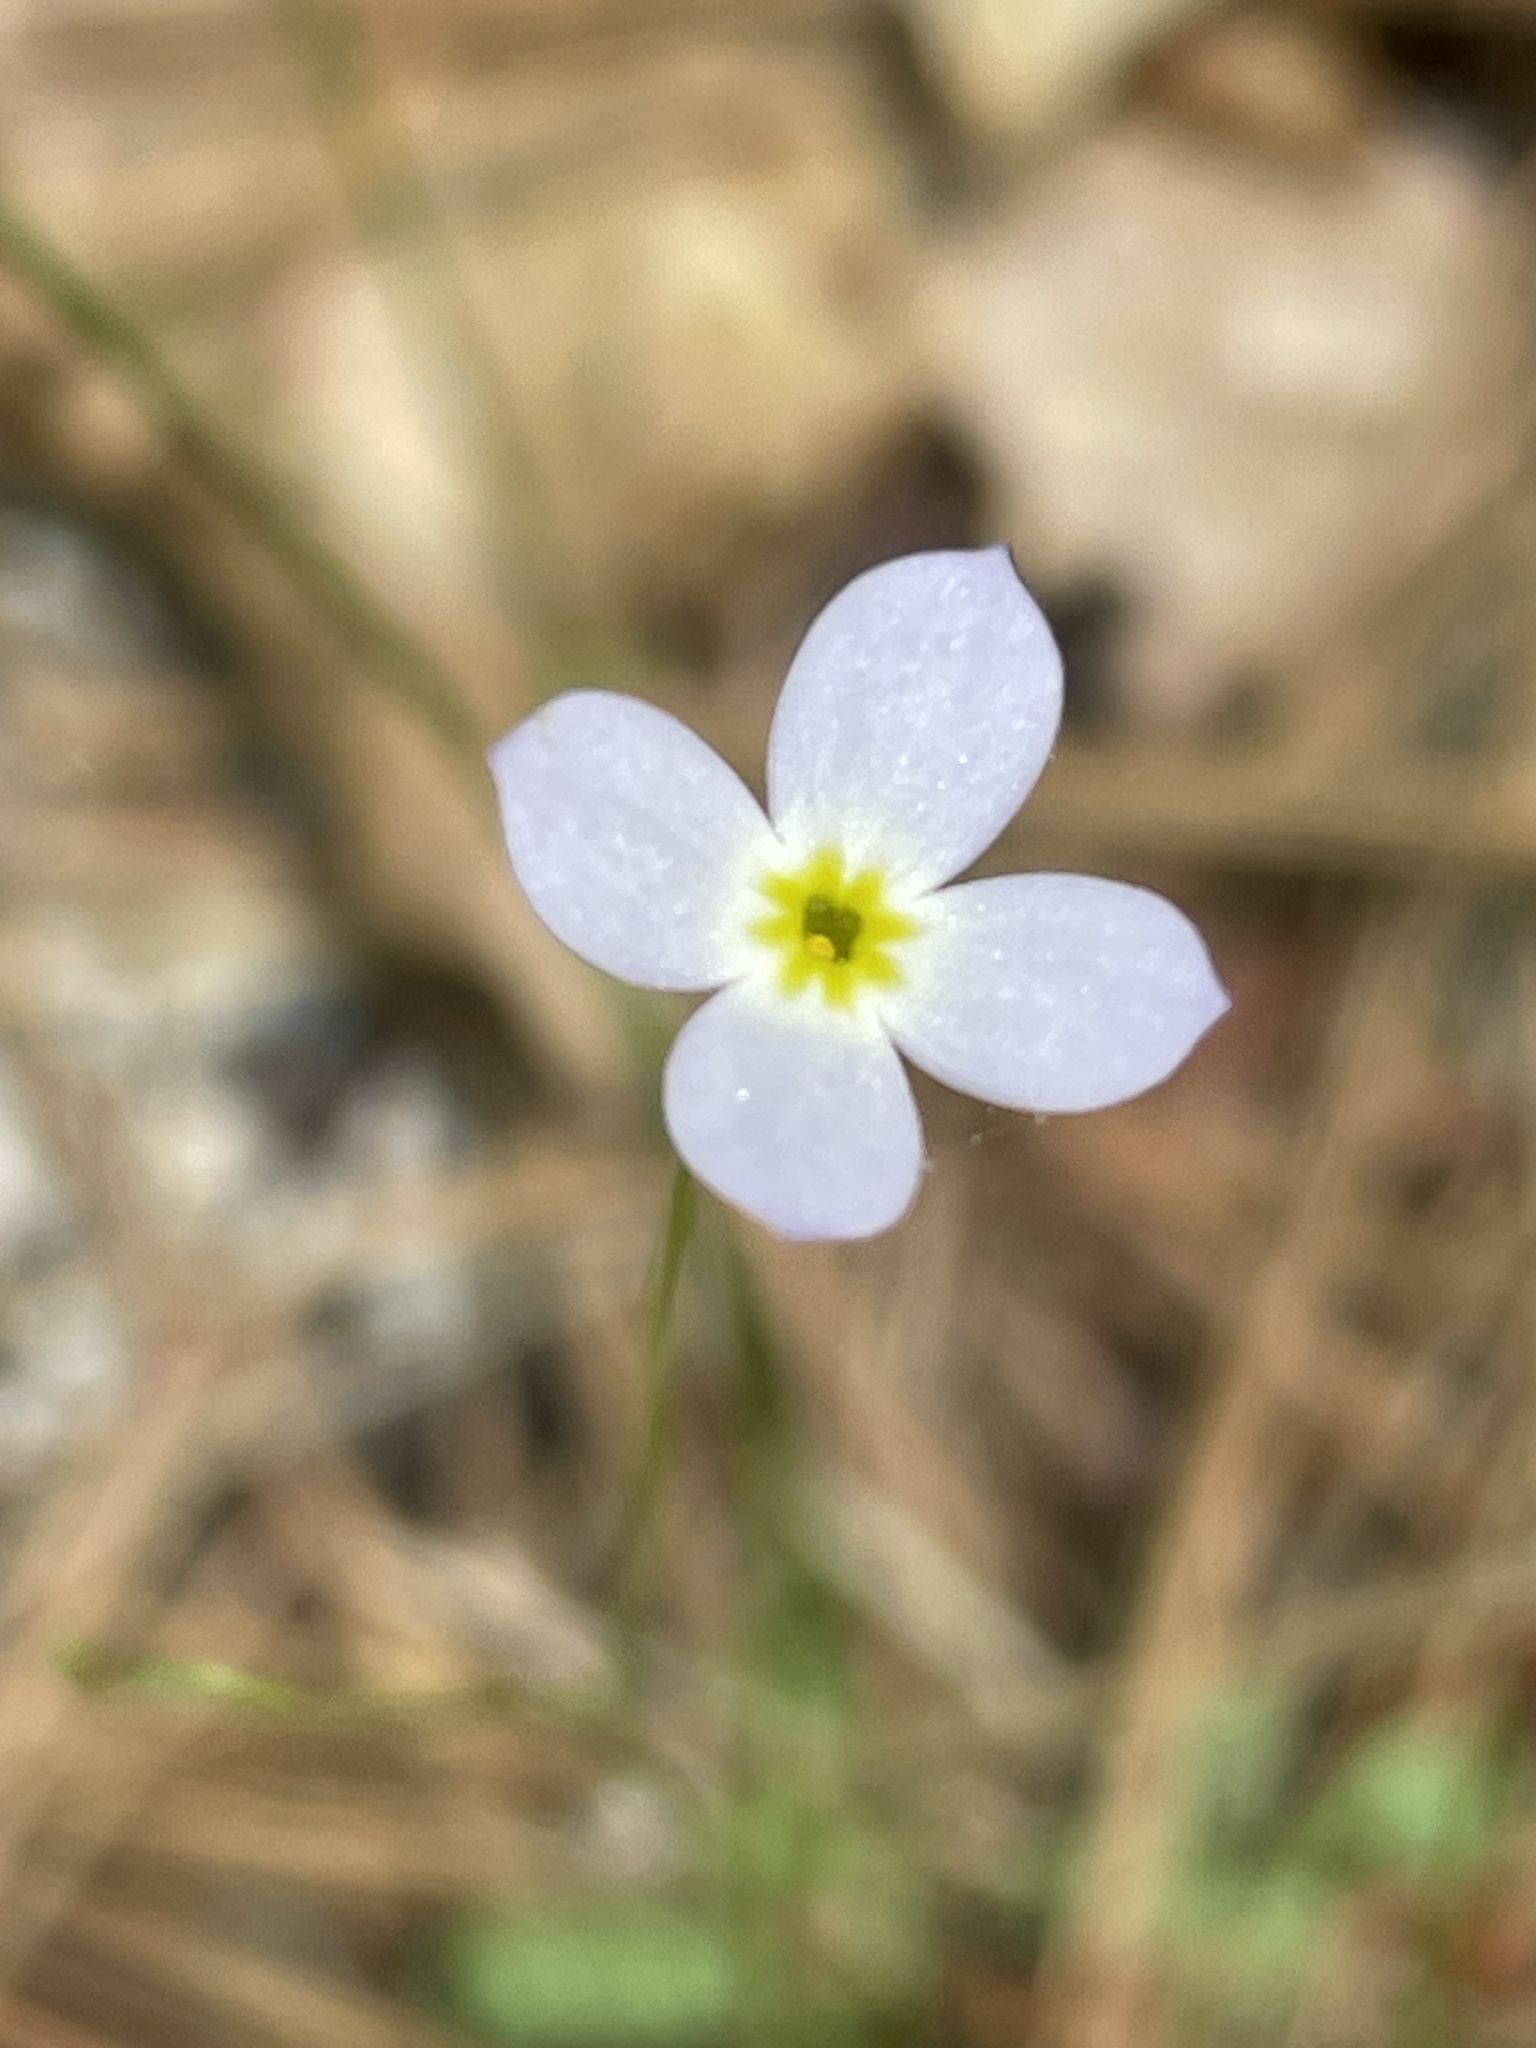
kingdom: Plantae
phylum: Tracheophyta
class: Magnoliopsida
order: Gentianales
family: Rubiaceae
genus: Houstonia
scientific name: Houstonia caerulea
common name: Bluets
